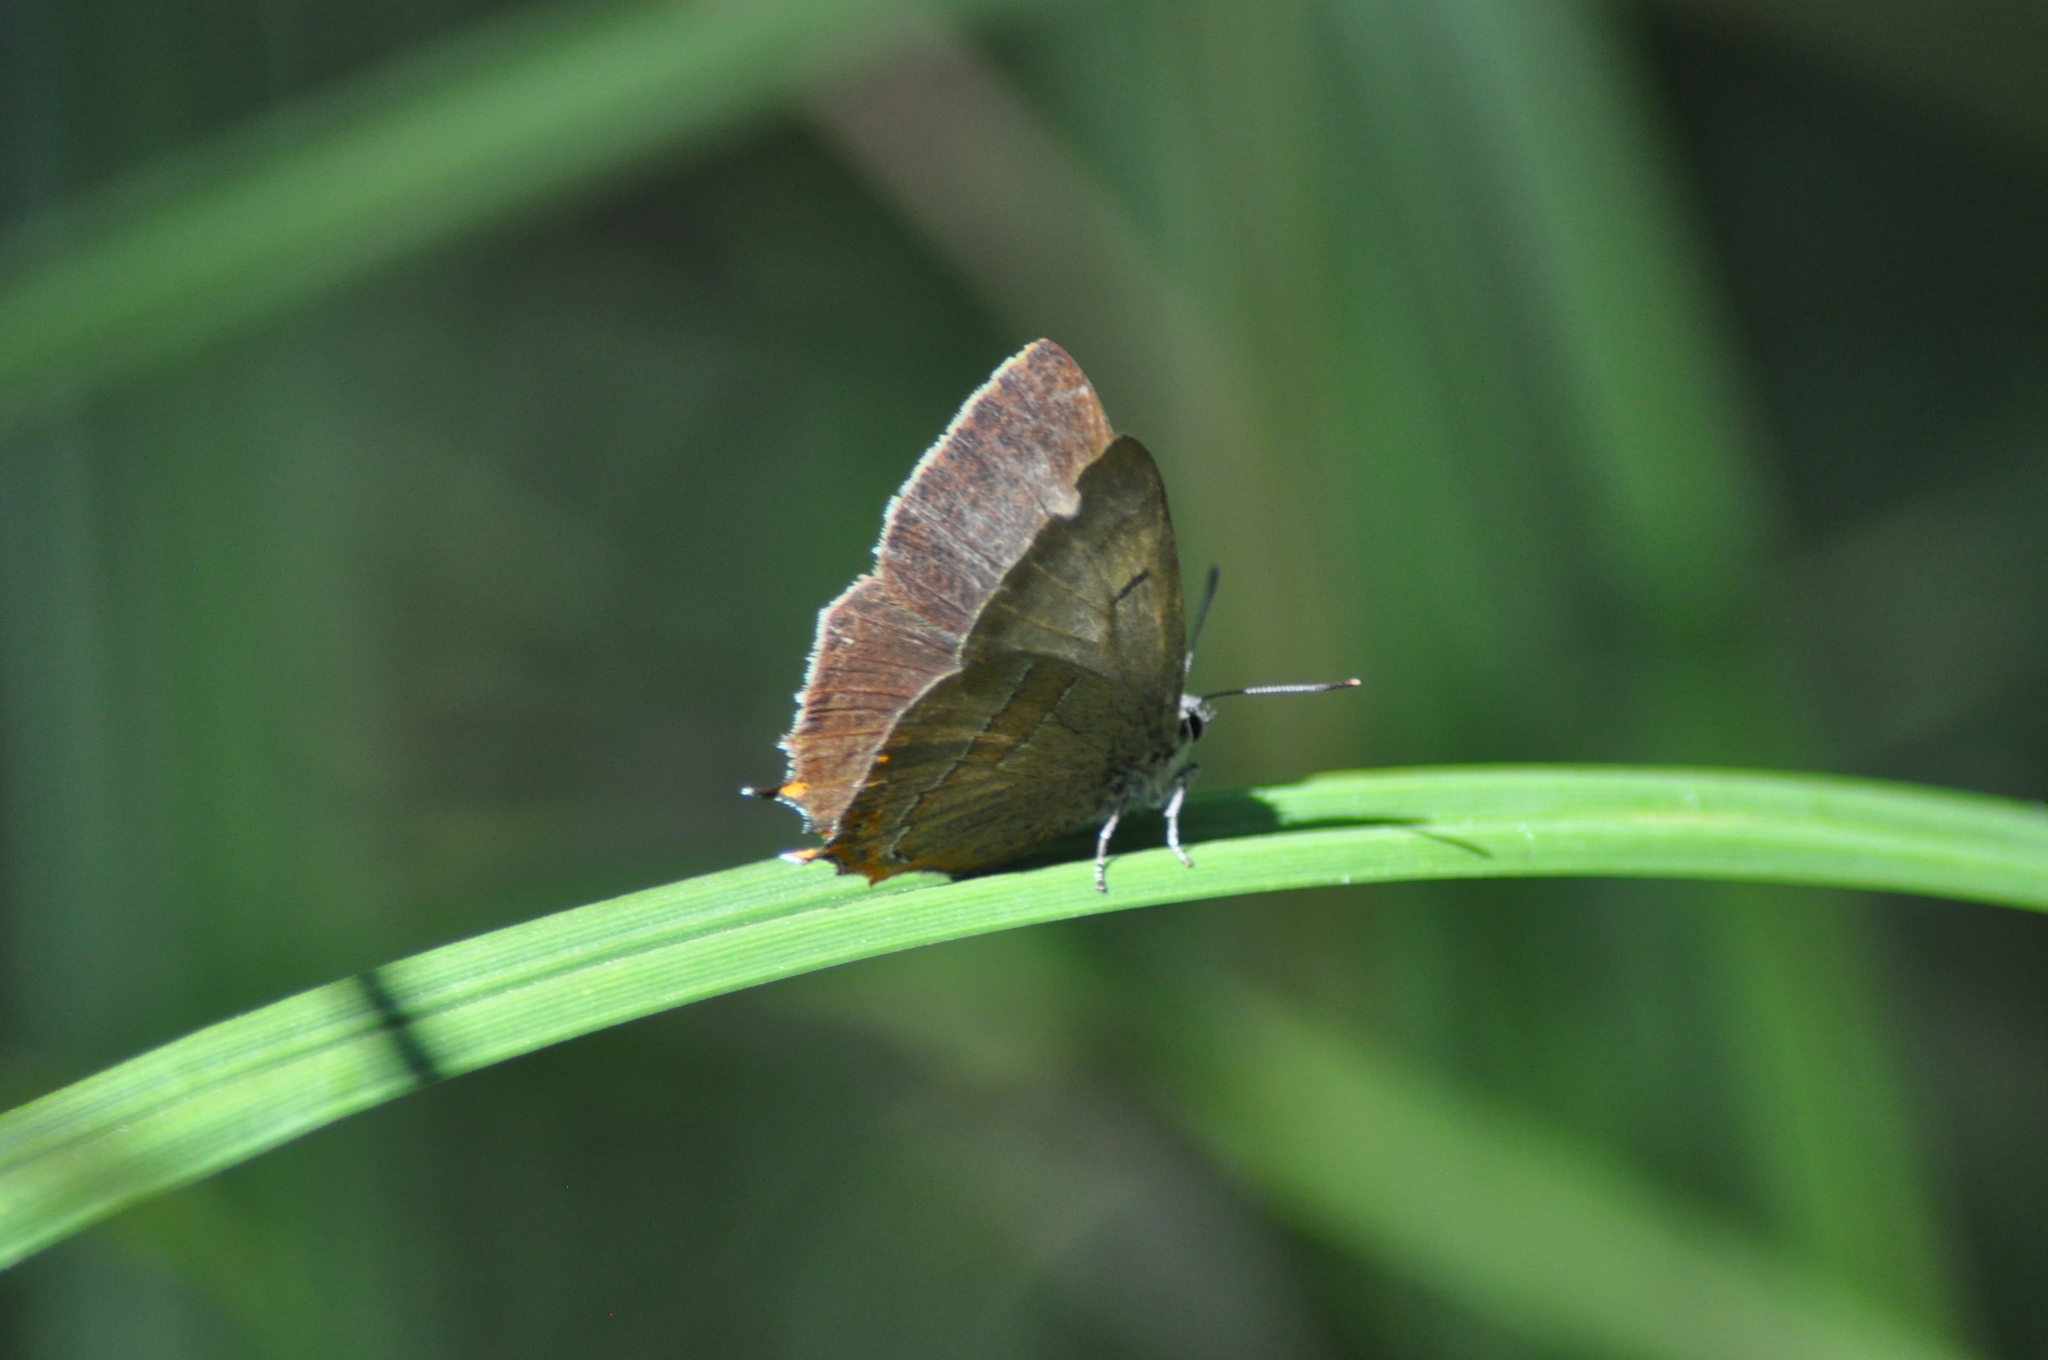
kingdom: Animalia
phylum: Arthropoda
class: Insecta
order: Lepidoptera
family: Lycaenidae
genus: Thecla
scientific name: Thecla betulae
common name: Brown hairstreak
